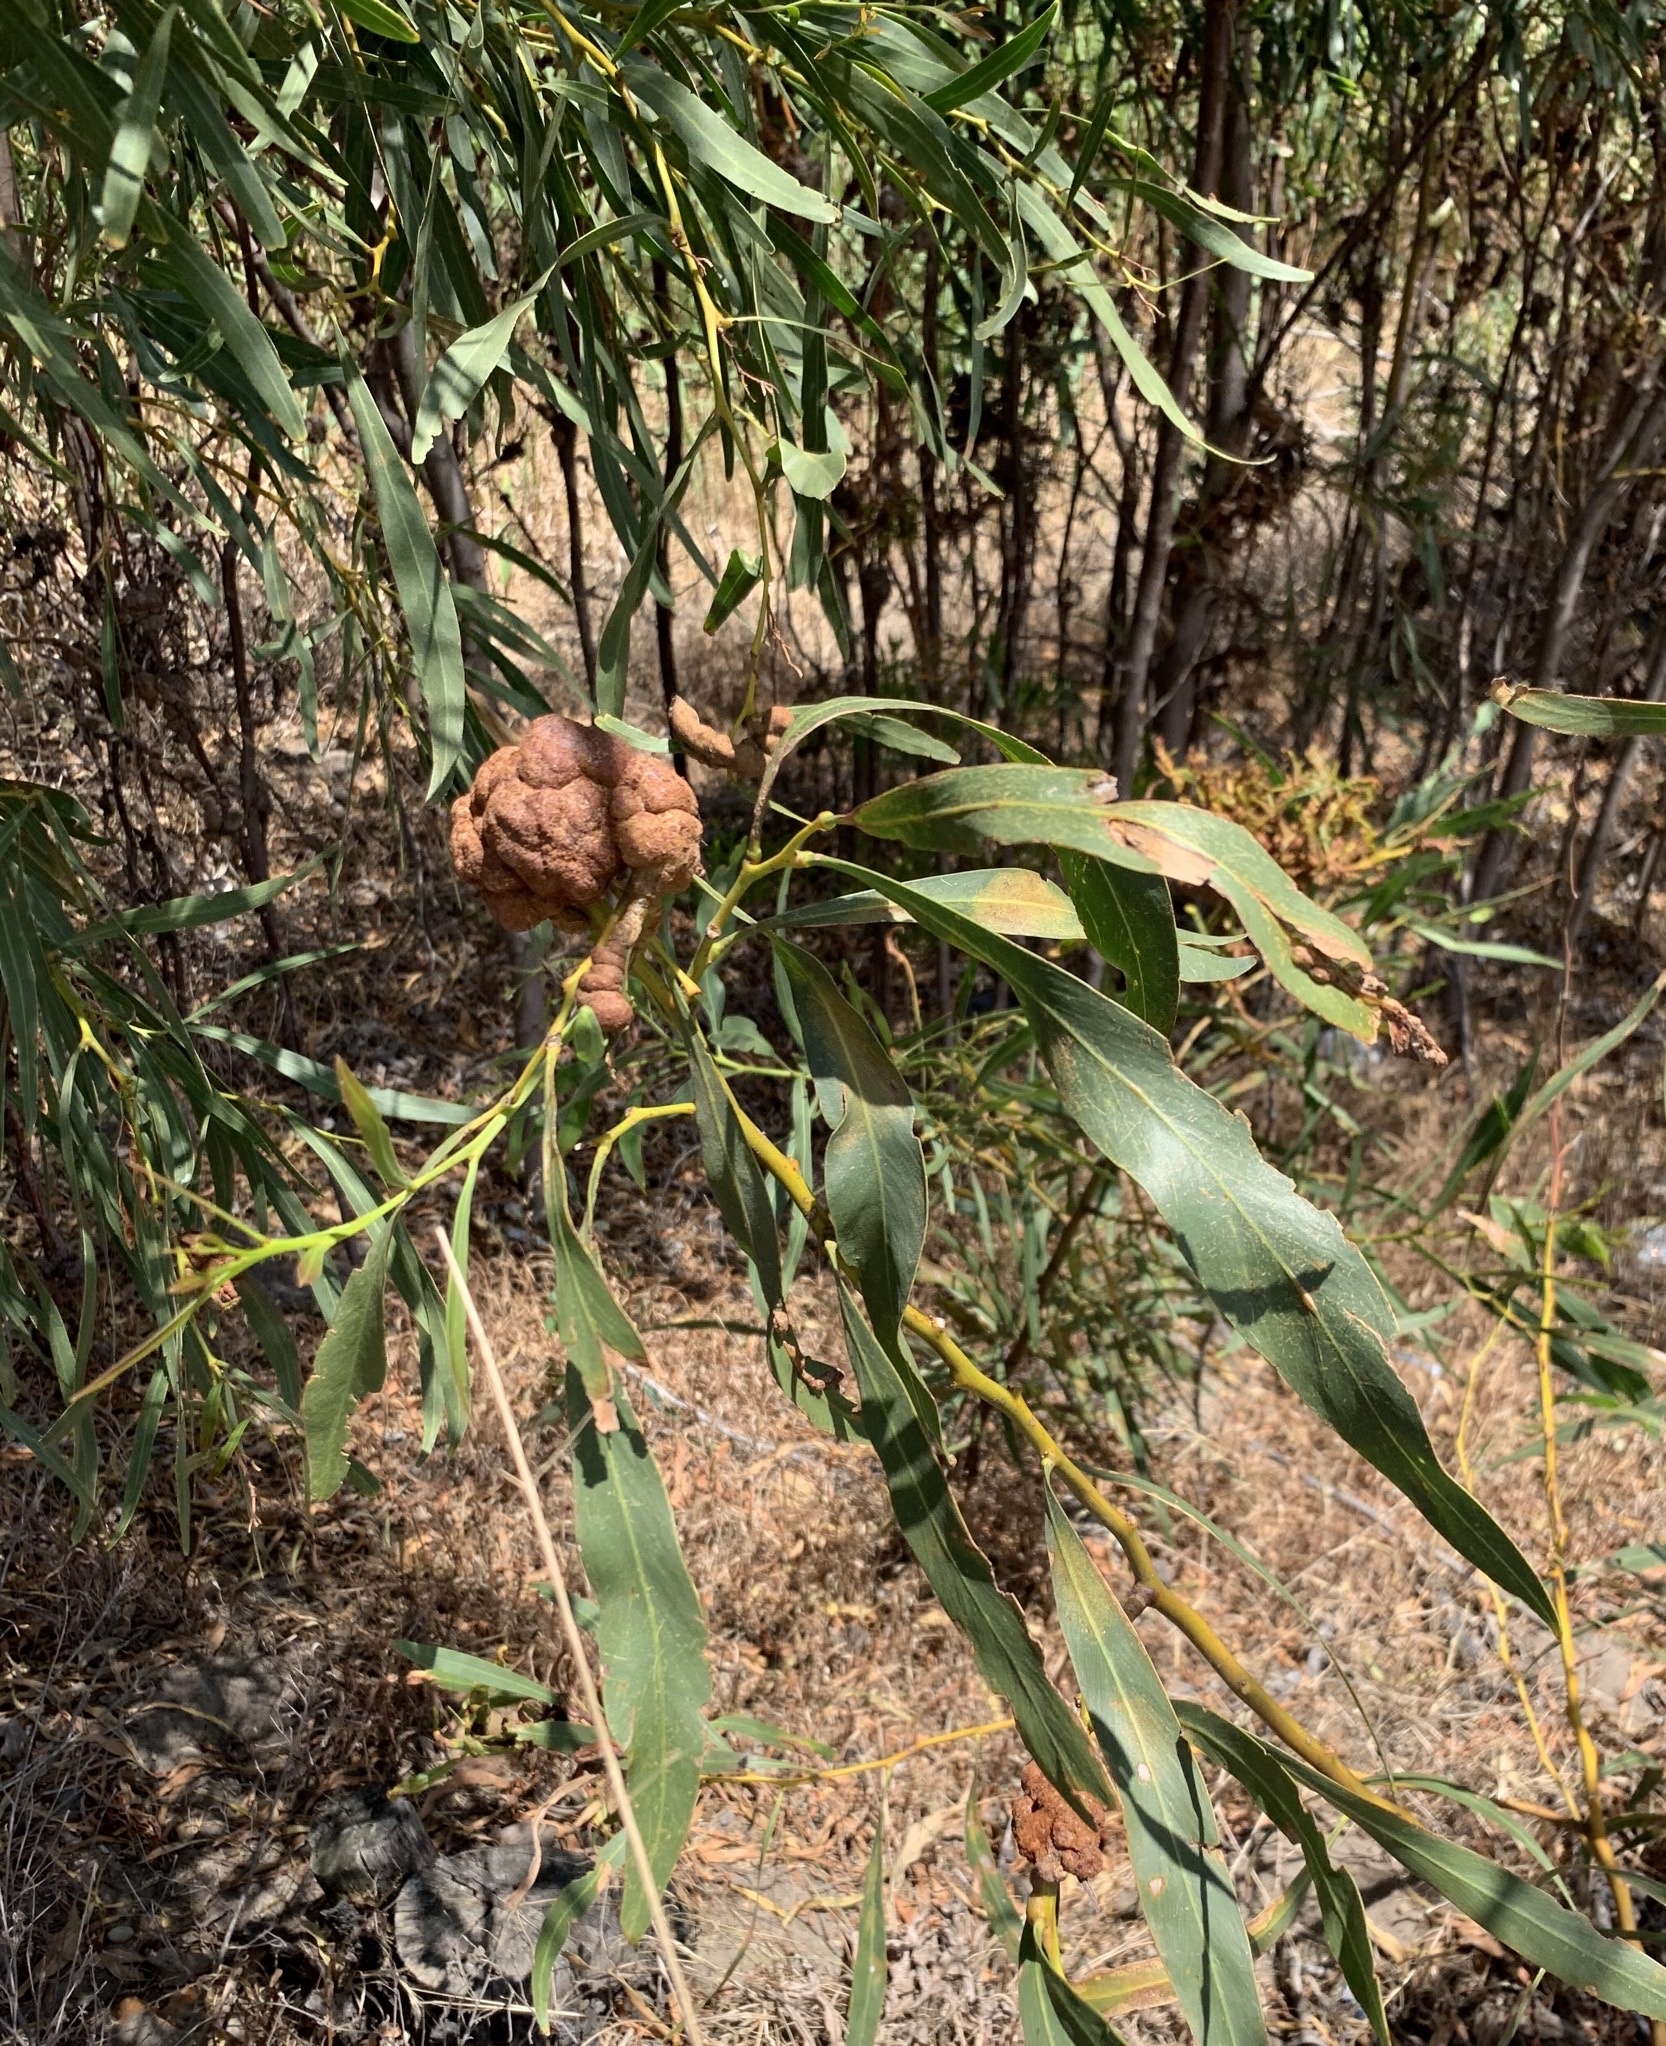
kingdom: Fungi
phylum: Basidiomycota
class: Pucciniomycetes
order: Pucciniales
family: Uromycladiaceae
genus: Uromycladium
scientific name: Uromycladium morrisii
